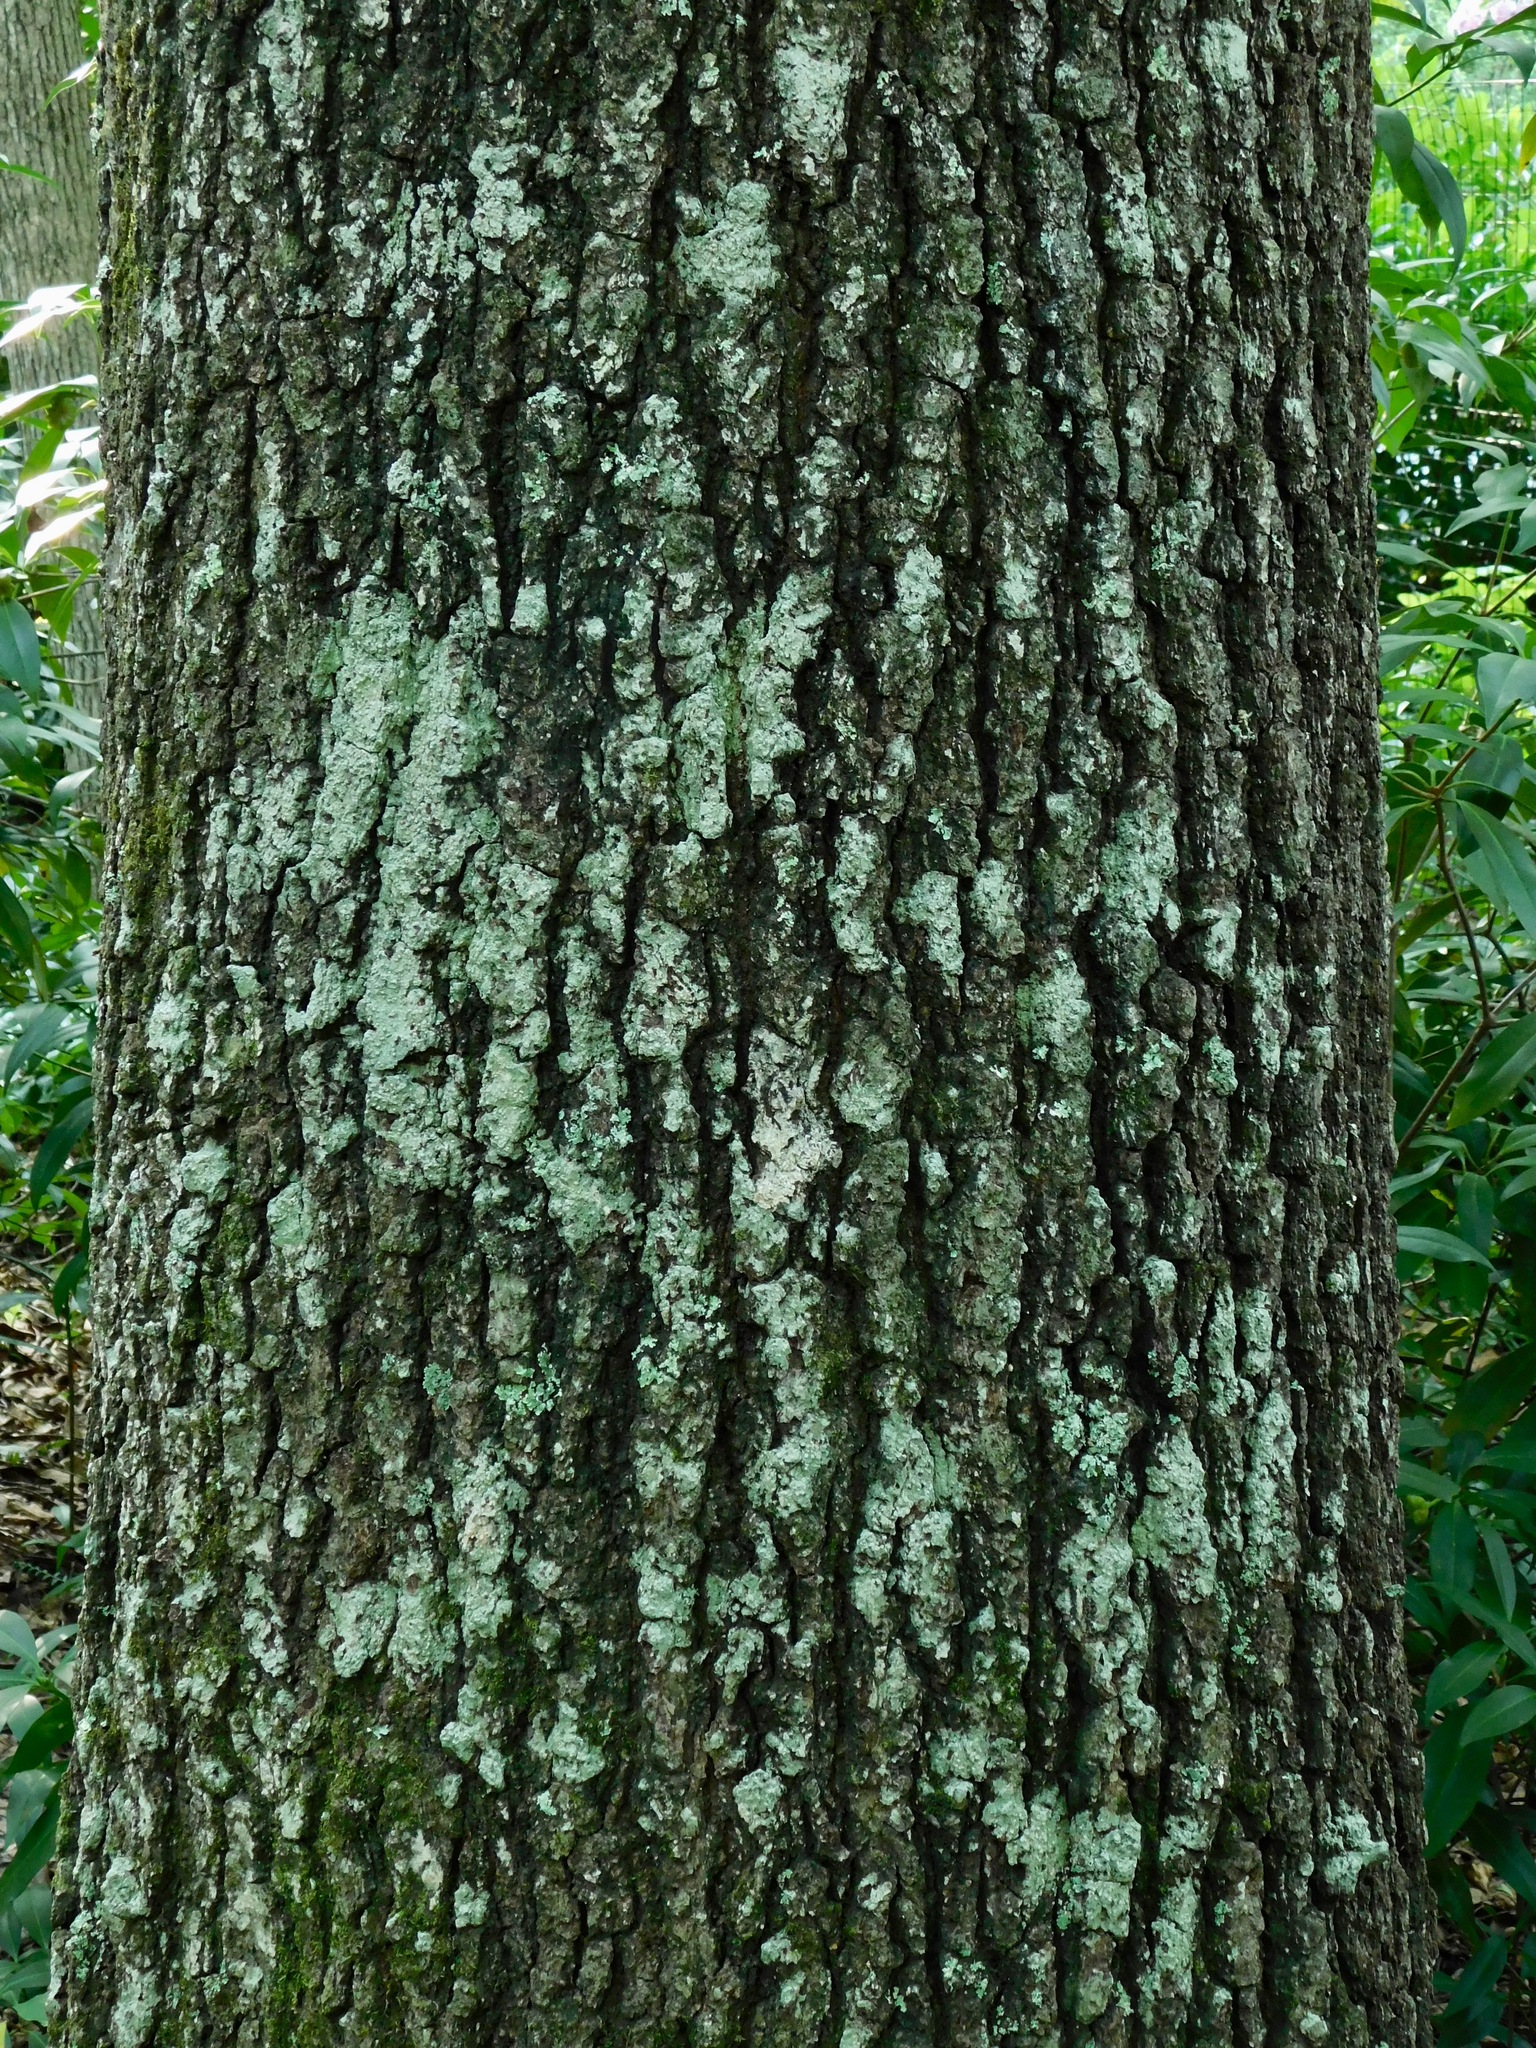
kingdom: Plantae
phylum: Tracheophyta
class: Magnoliopsida
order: Fagales
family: Fagaceae
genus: Quercus
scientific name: Quercus falcata
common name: Southern red oak
